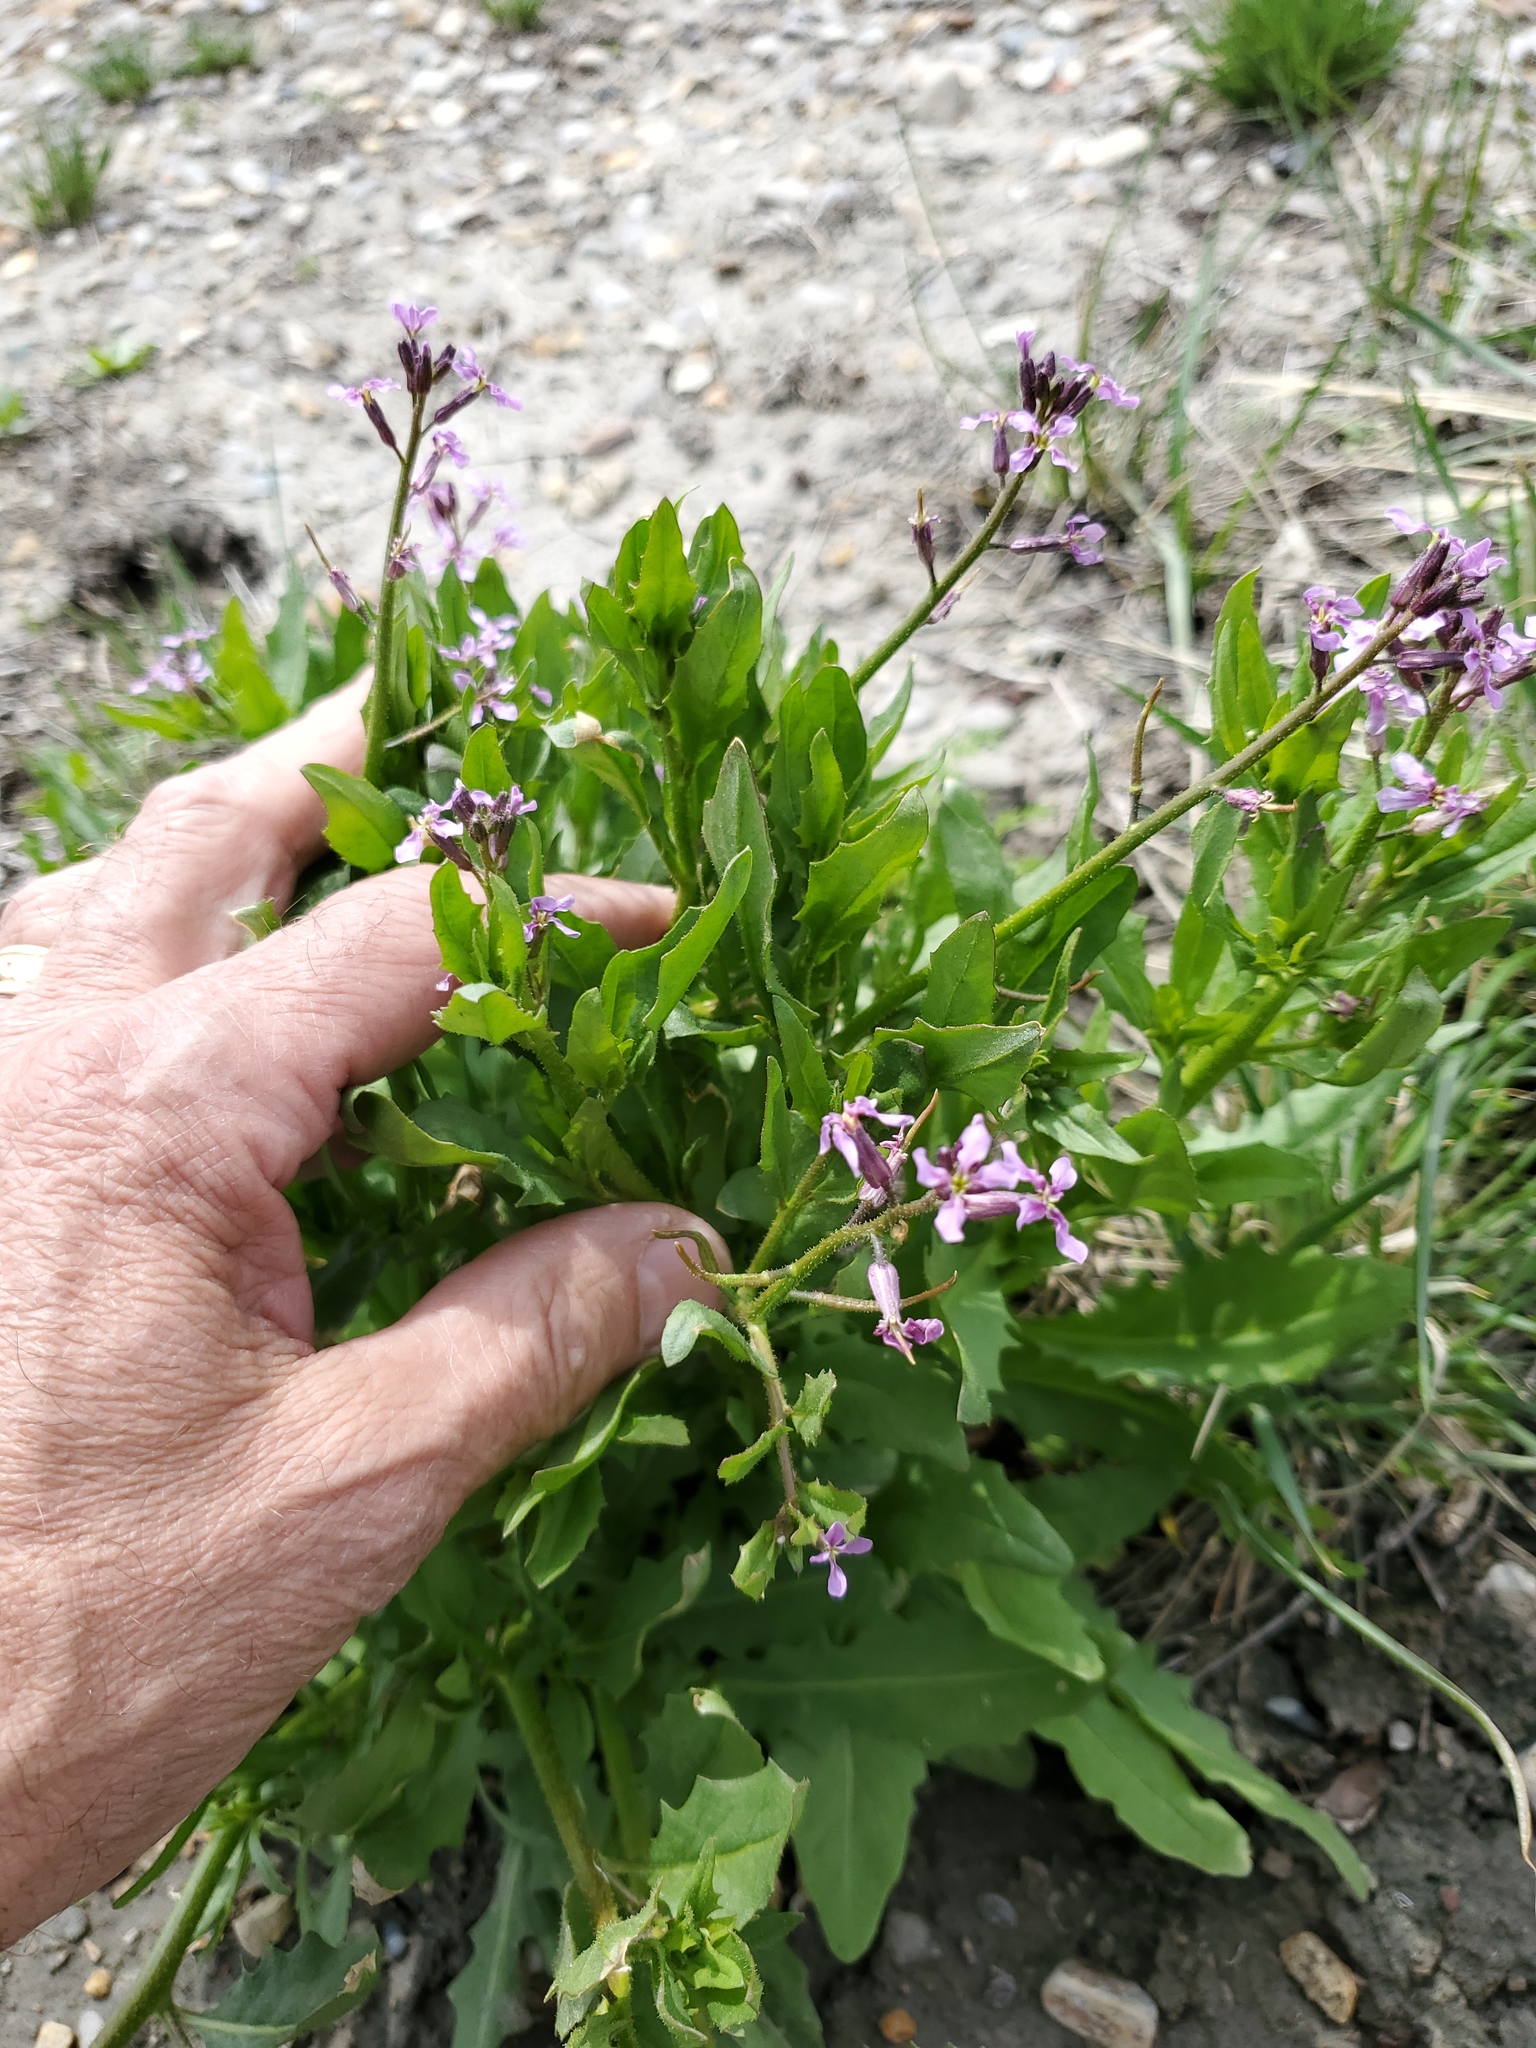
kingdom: Plantae
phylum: Tracheophyta
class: Magnoliopsida
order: Brassicales
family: Brassicaceae
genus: Chorispora
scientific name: Chorispora tenella
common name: Crossflower
